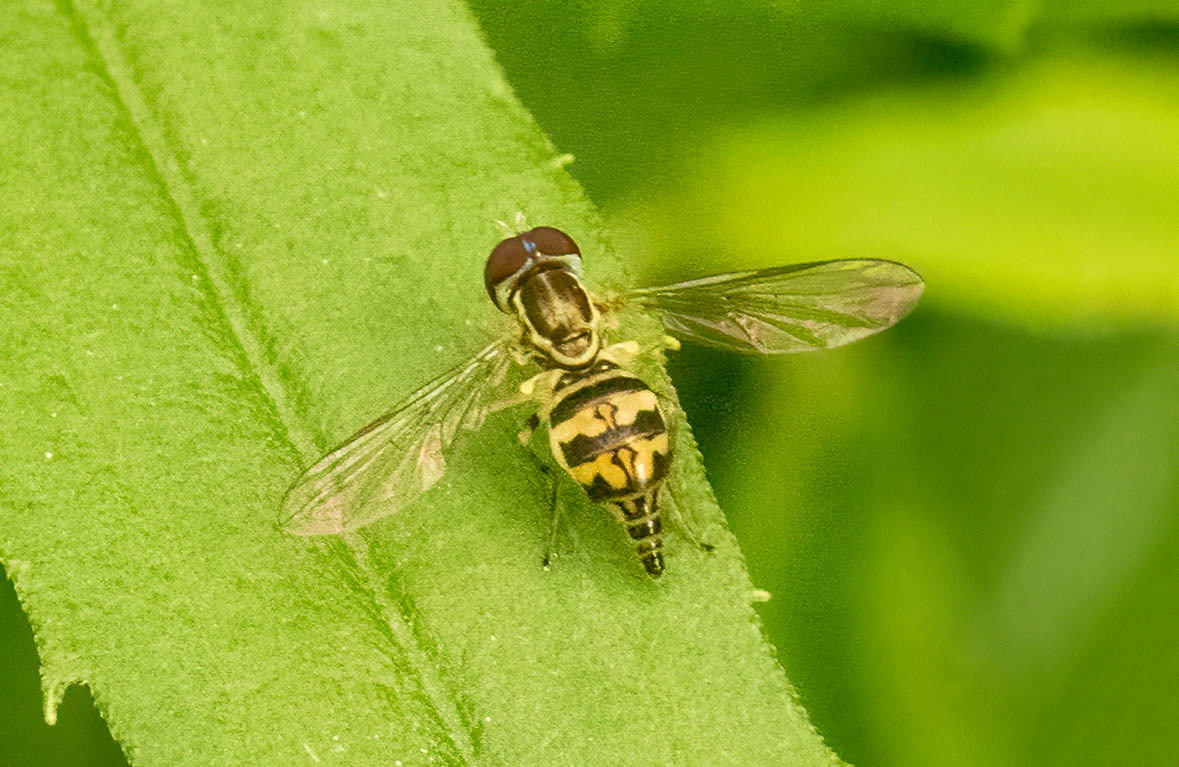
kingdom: Animalia
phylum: Arthropoda
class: Insecta
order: Diptera
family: Syrphidae
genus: Toxomerus
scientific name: Toxomerus geminatus
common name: Eastern calligrapher
